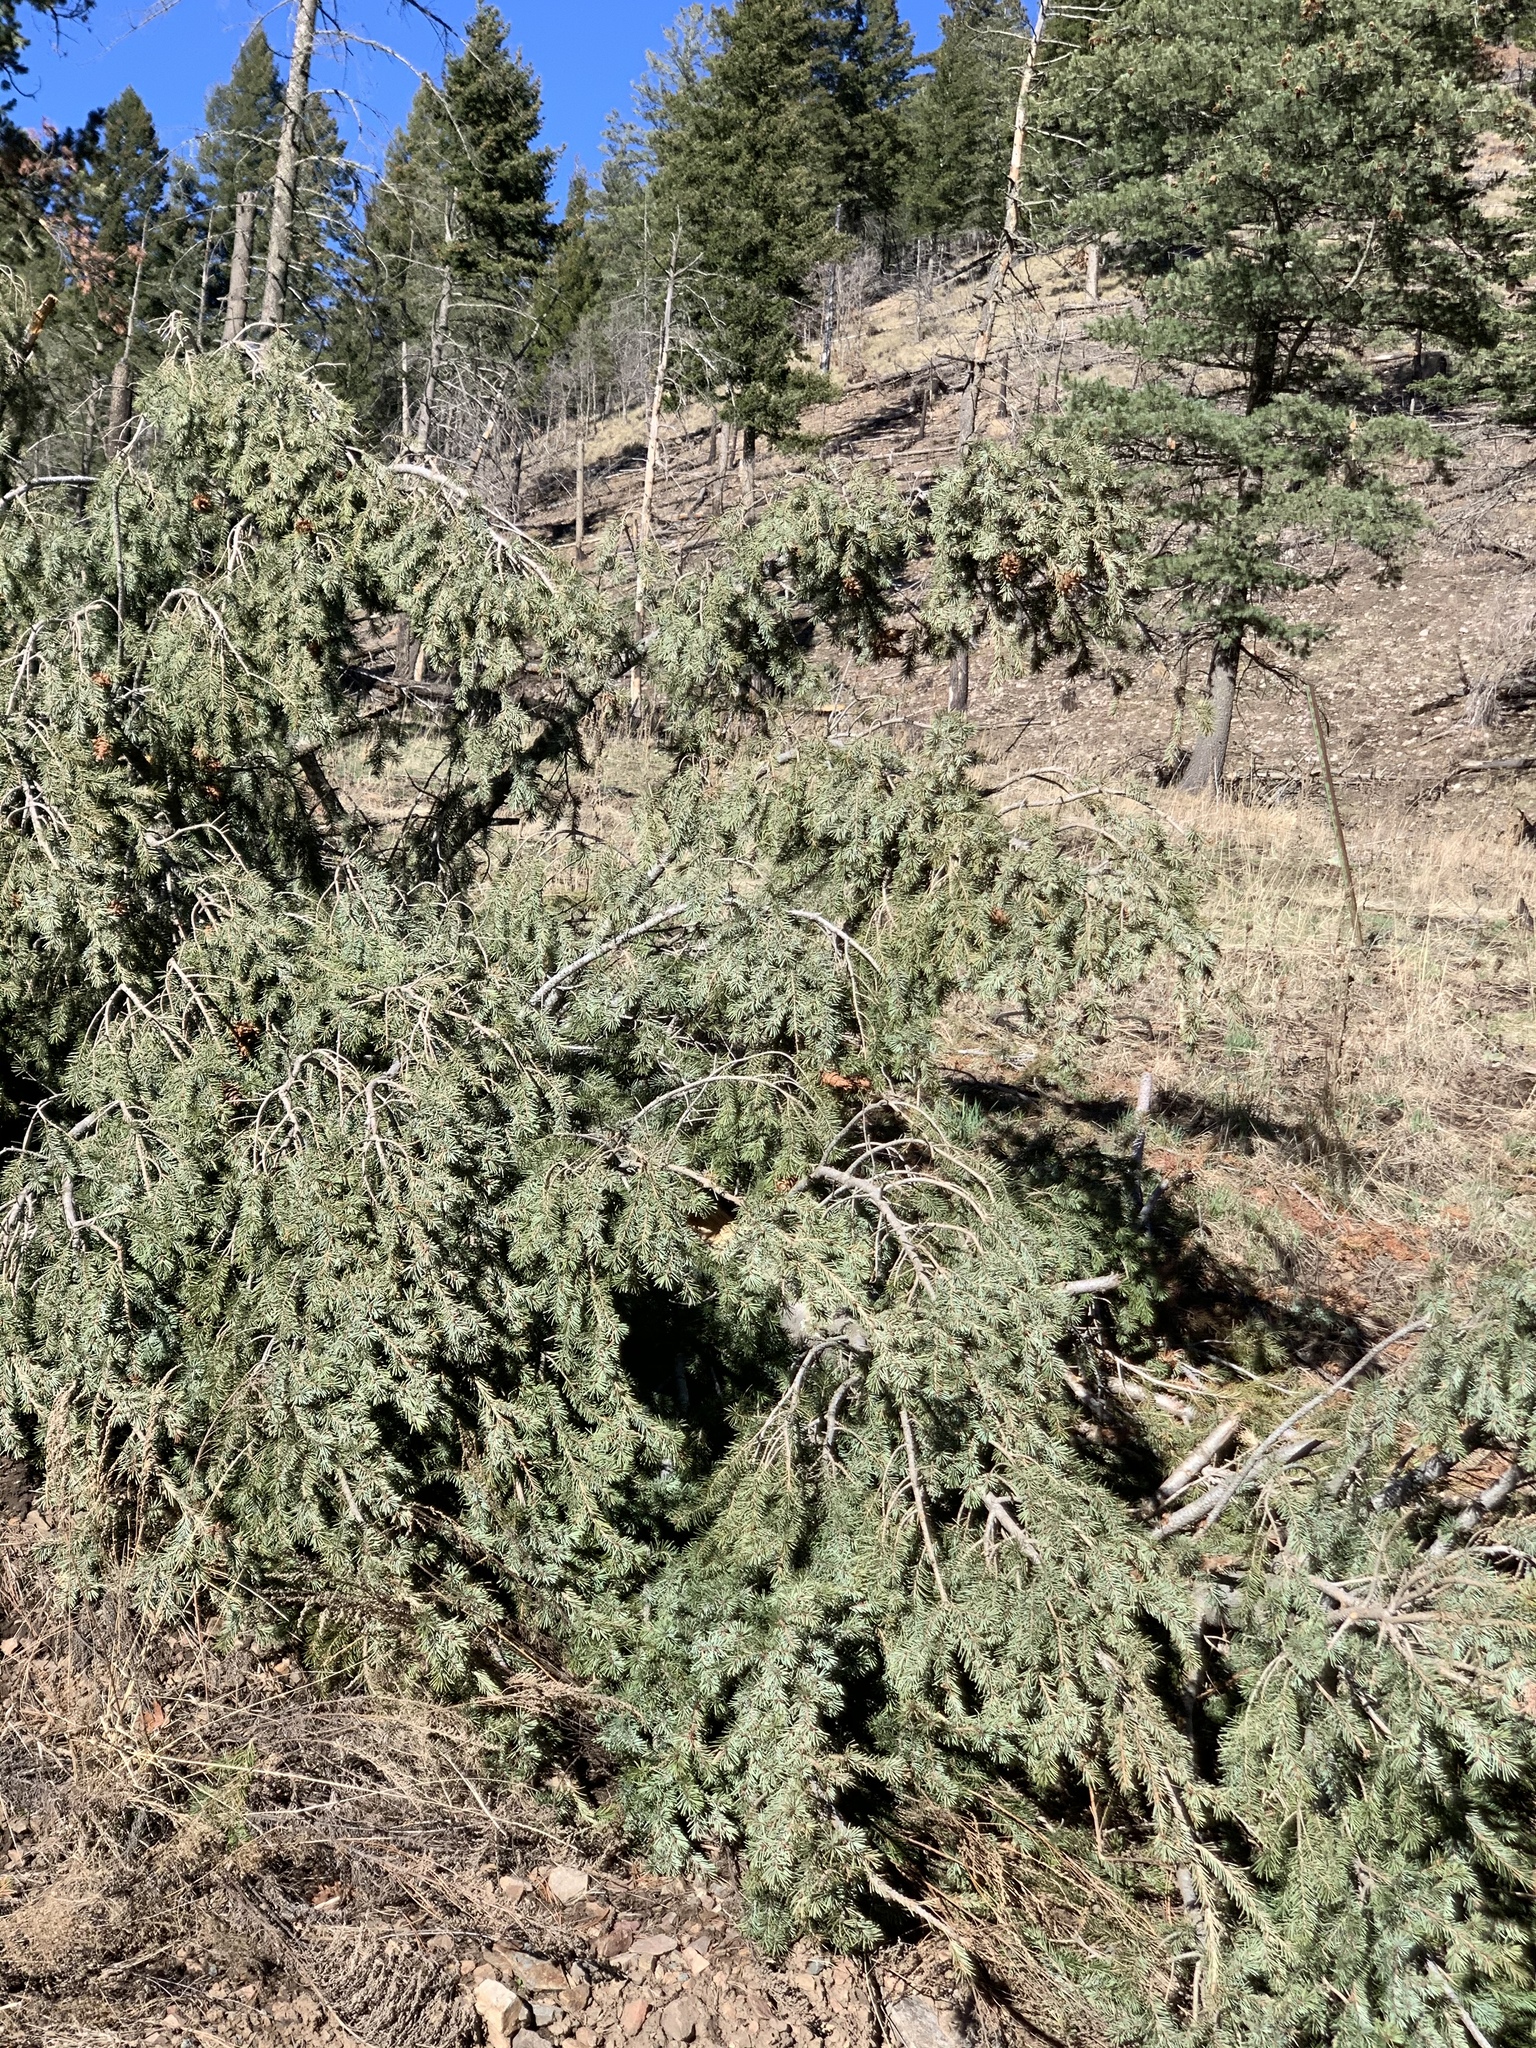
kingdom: Plantae
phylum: Tracheophyta
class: Pinopsida
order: Pinales
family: Pinaceae
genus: Pseudotsuga
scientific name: Pseudotsuga menziesii
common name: Douglas fir
